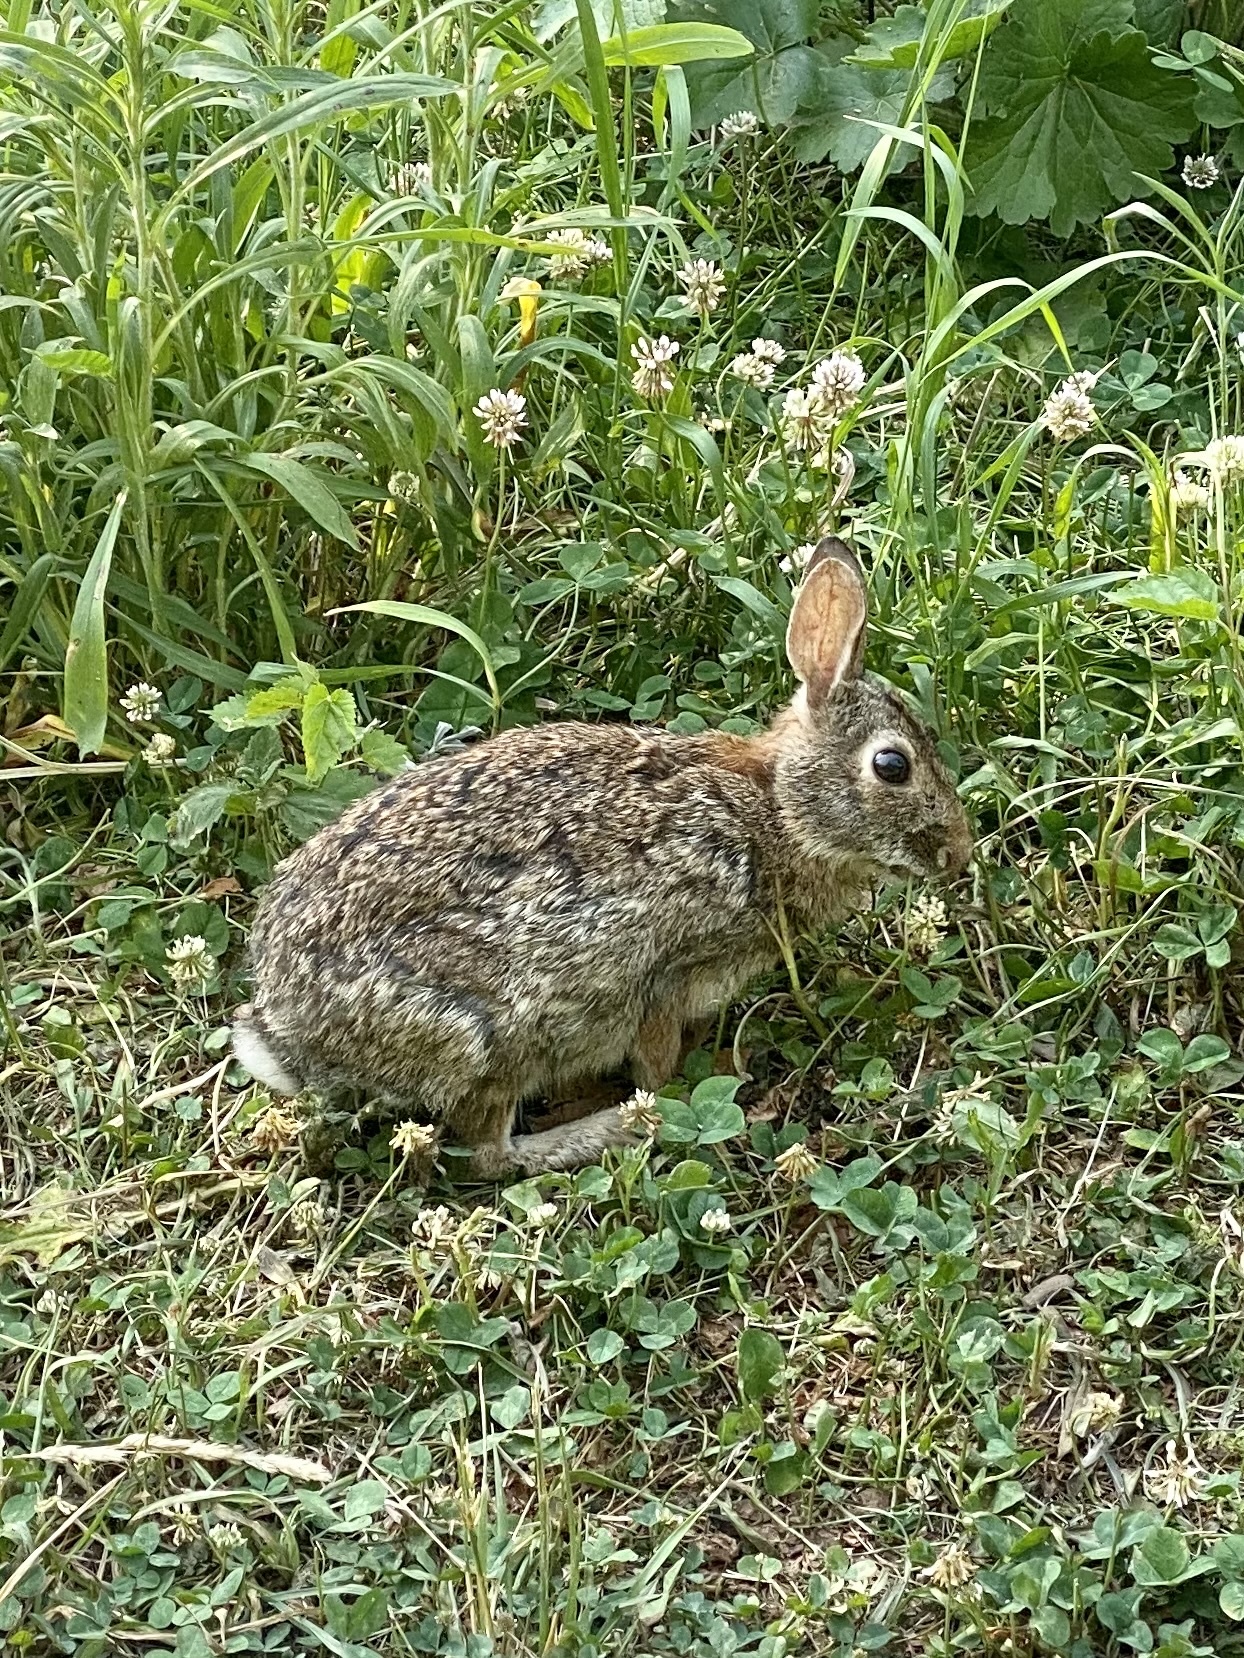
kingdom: Animalia
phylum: Chordata
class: Mammalia
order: Lagomorpha
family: Leporidae
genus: Sylvilagus
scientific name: Sylvilagus floridanus
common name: Eastern cottontail
